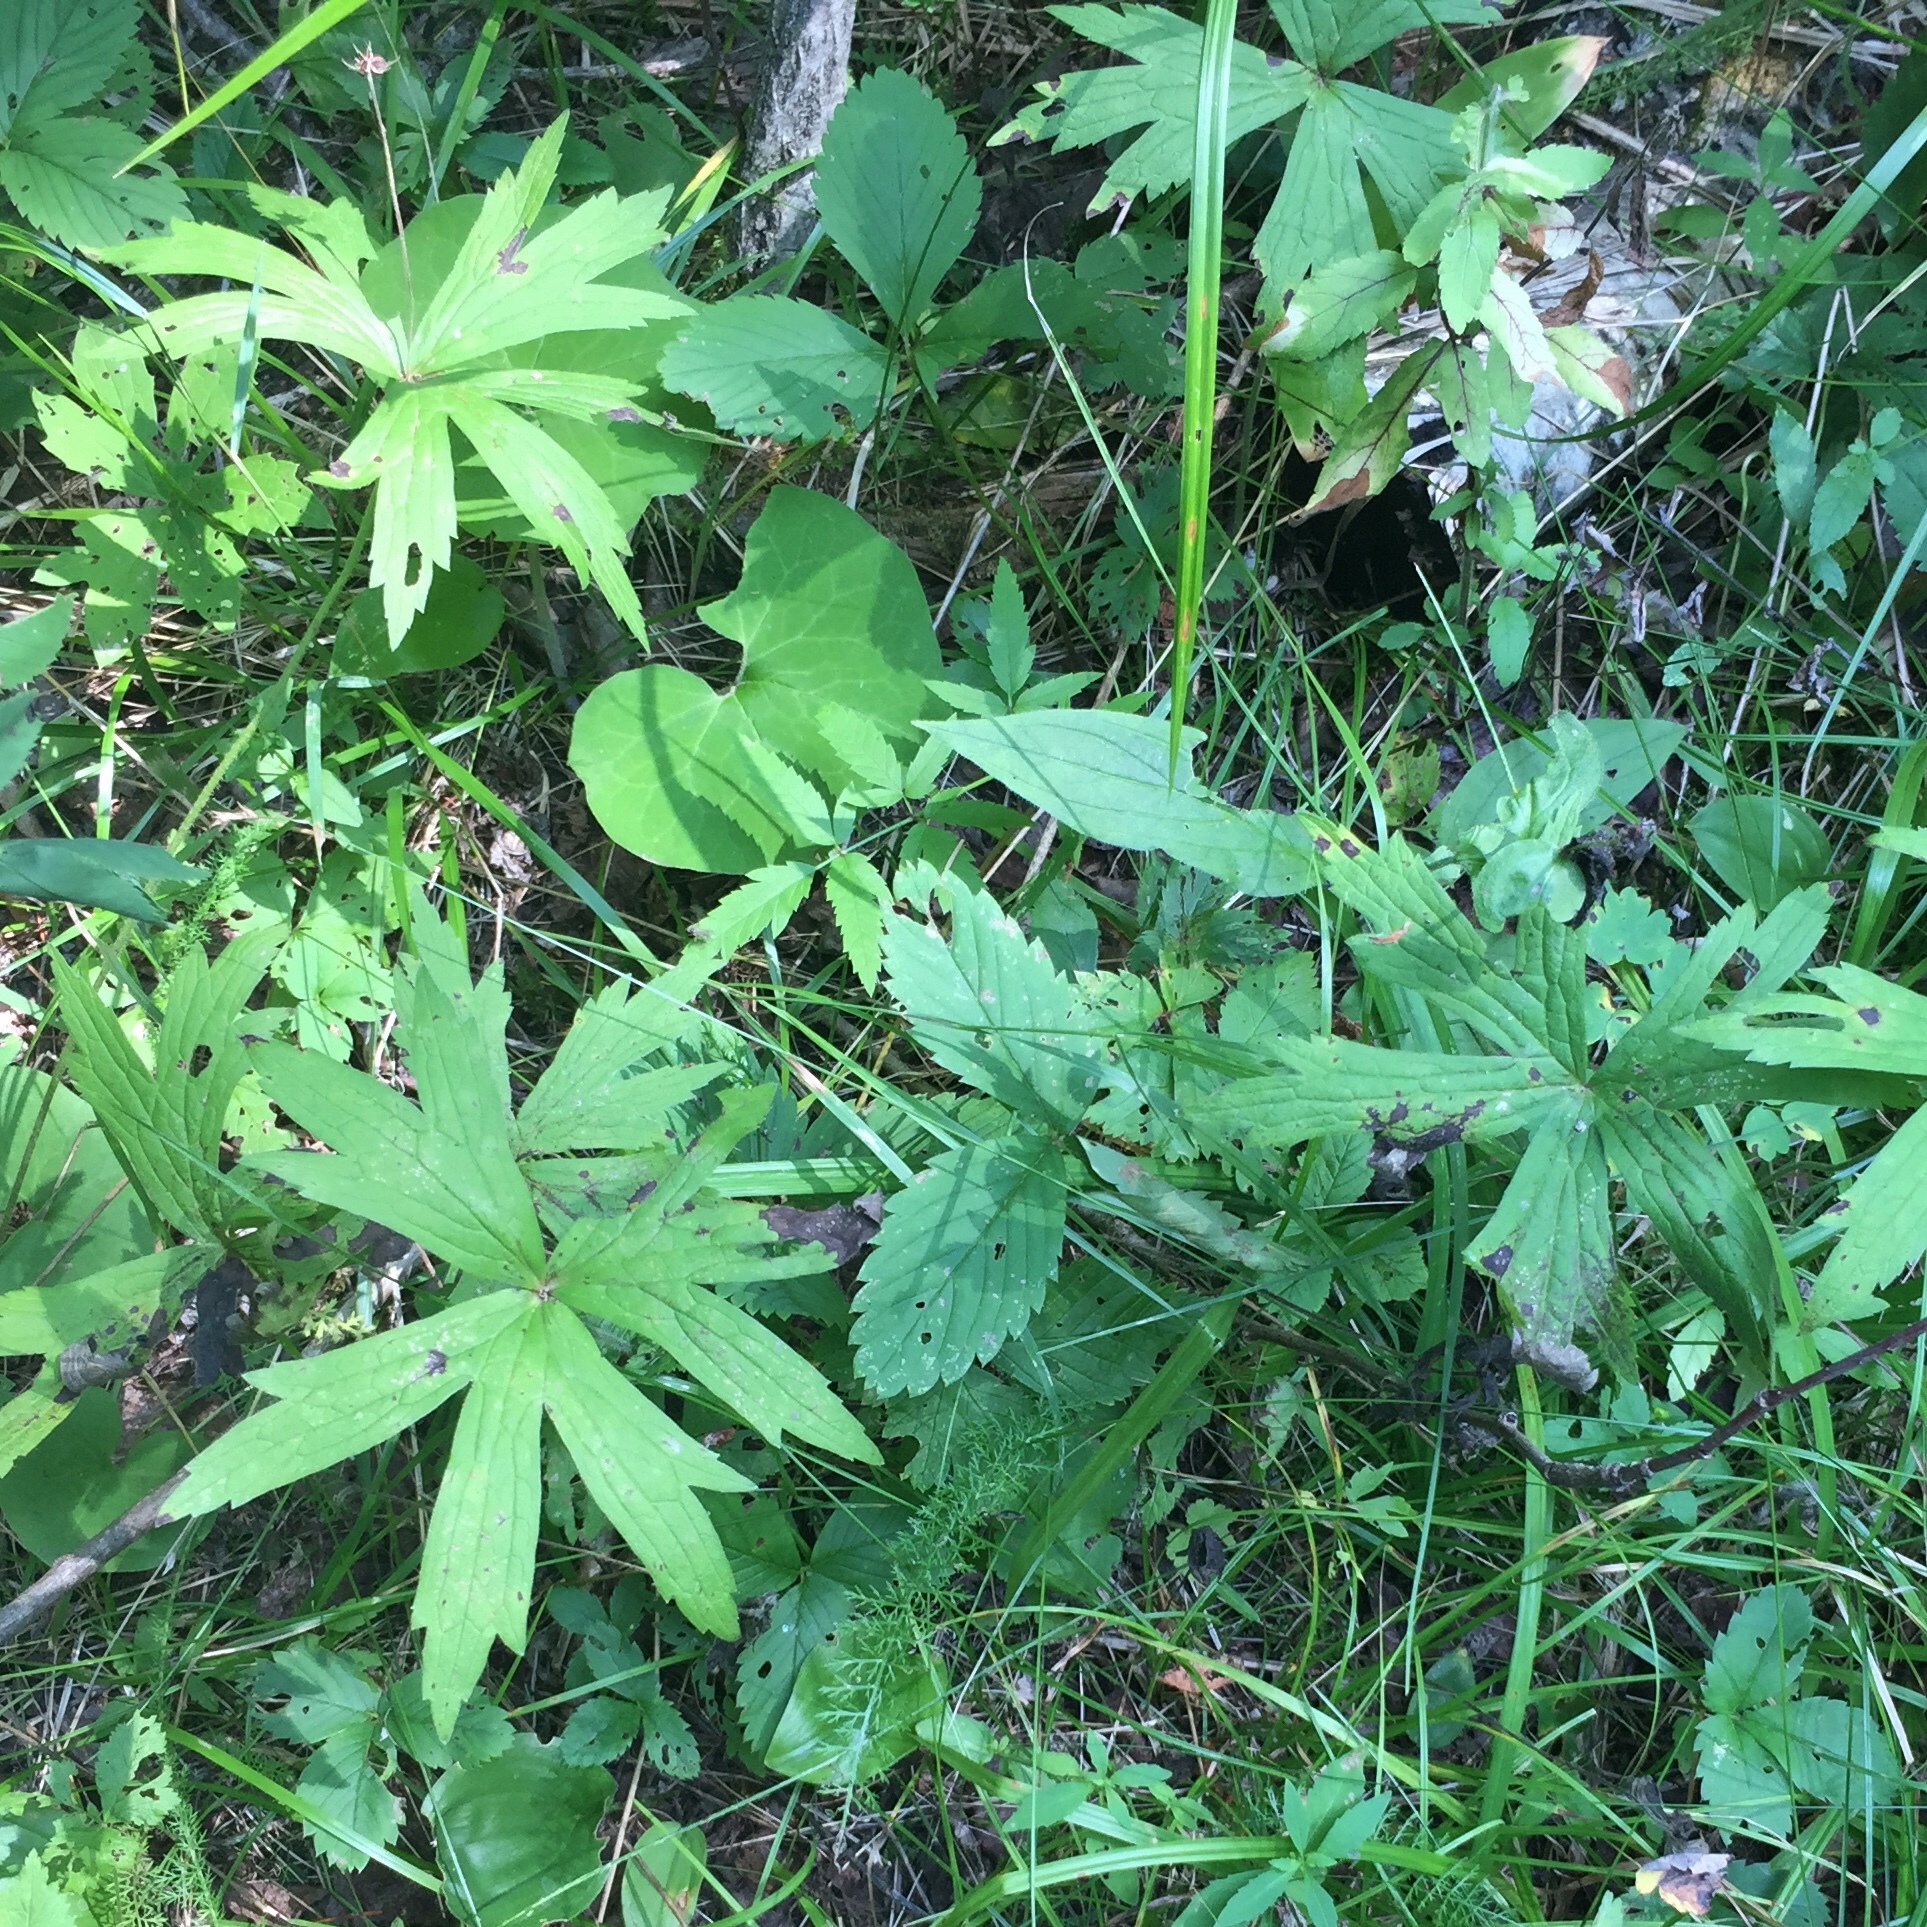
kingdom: Plantae
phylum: Tracheophyta
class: Magnoliopsida
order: Ranunculales
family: Ranunculaceae
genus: Anemonastrum
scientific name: Anemonastrum canadense
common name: Canada anemone
